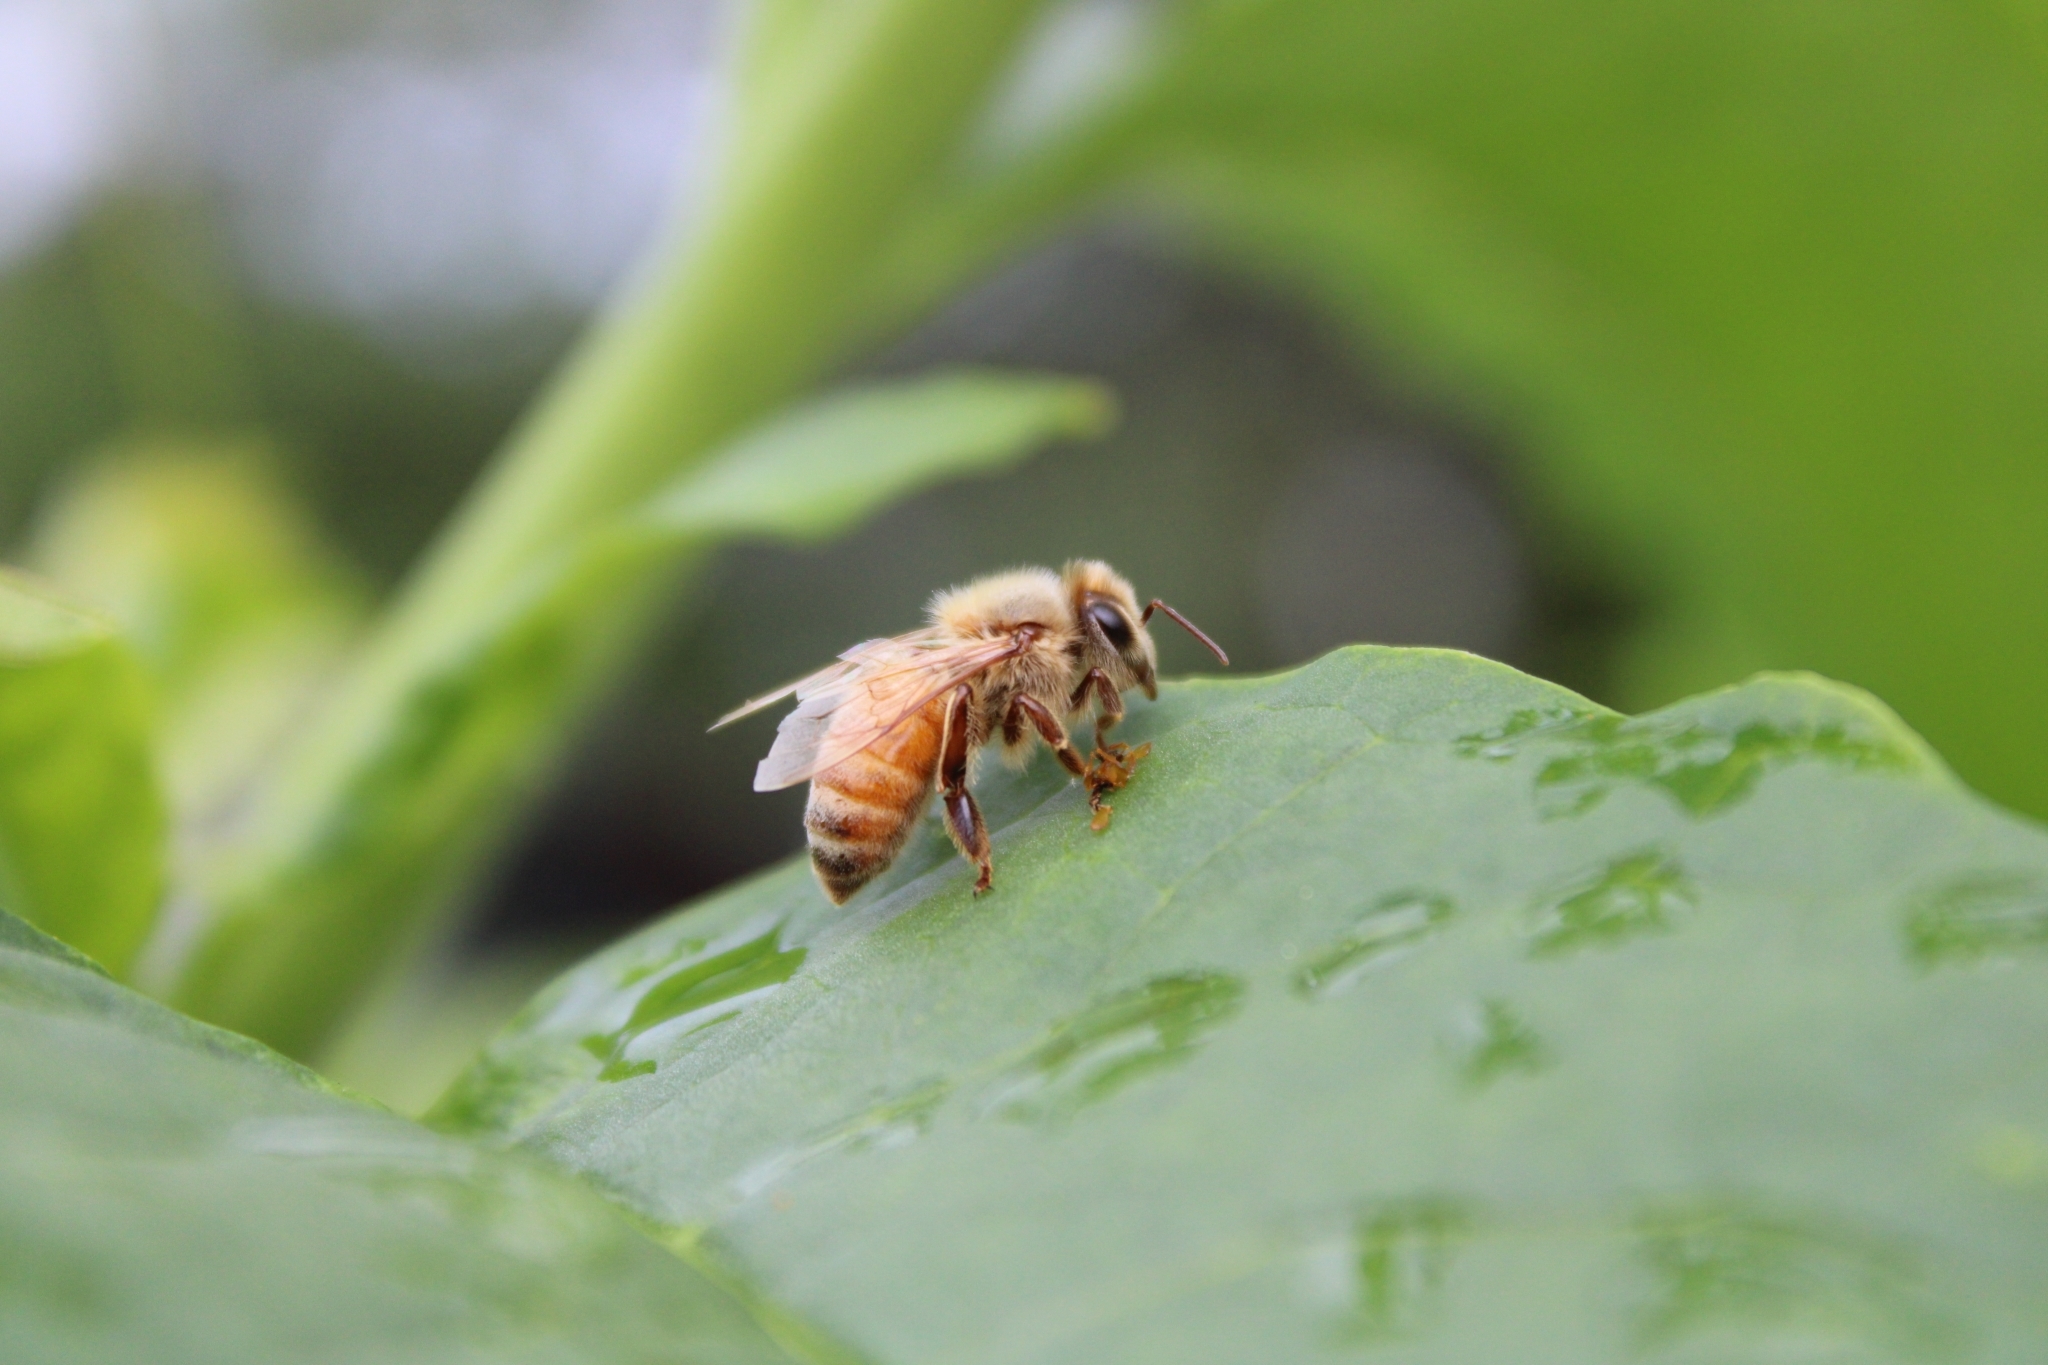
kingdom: Animalia
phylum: Arthropoda
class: Insecta
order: Hymenoptera
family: Apidae
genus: Apis
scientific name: Apis mellifera
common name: Honey bee
